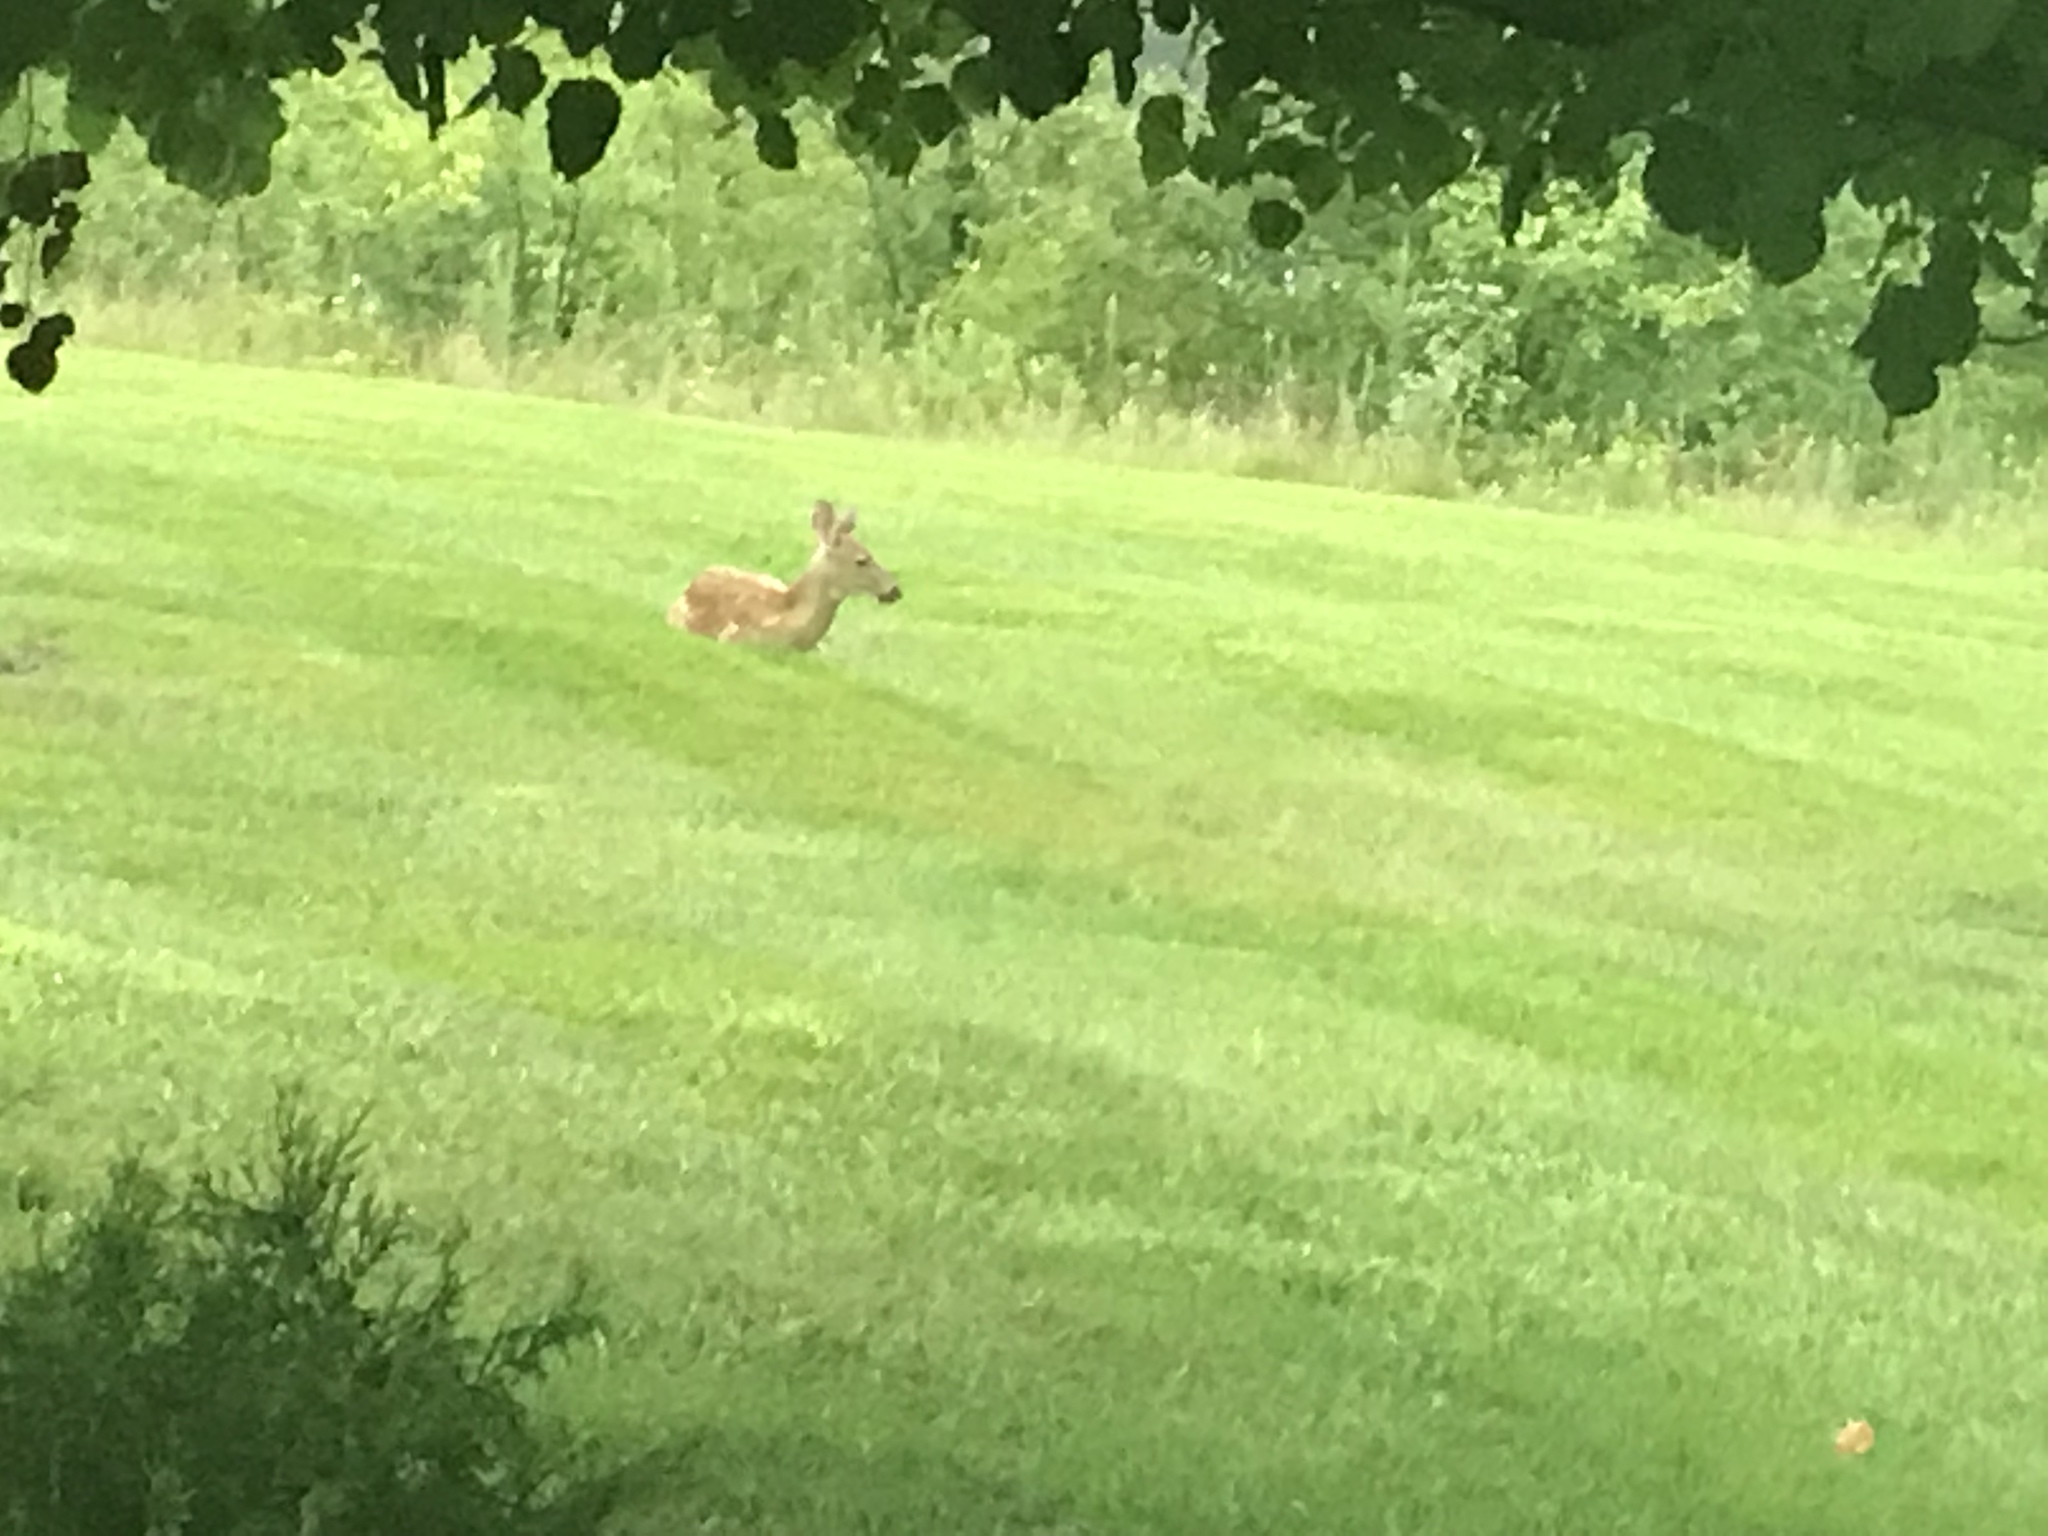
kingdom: Animalia
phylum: Chordata
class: Mammalia
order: Artiodactyla
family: Cervidae
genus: Odocoileus
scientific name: Odocoileus virginianus
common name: White-tailed deer
